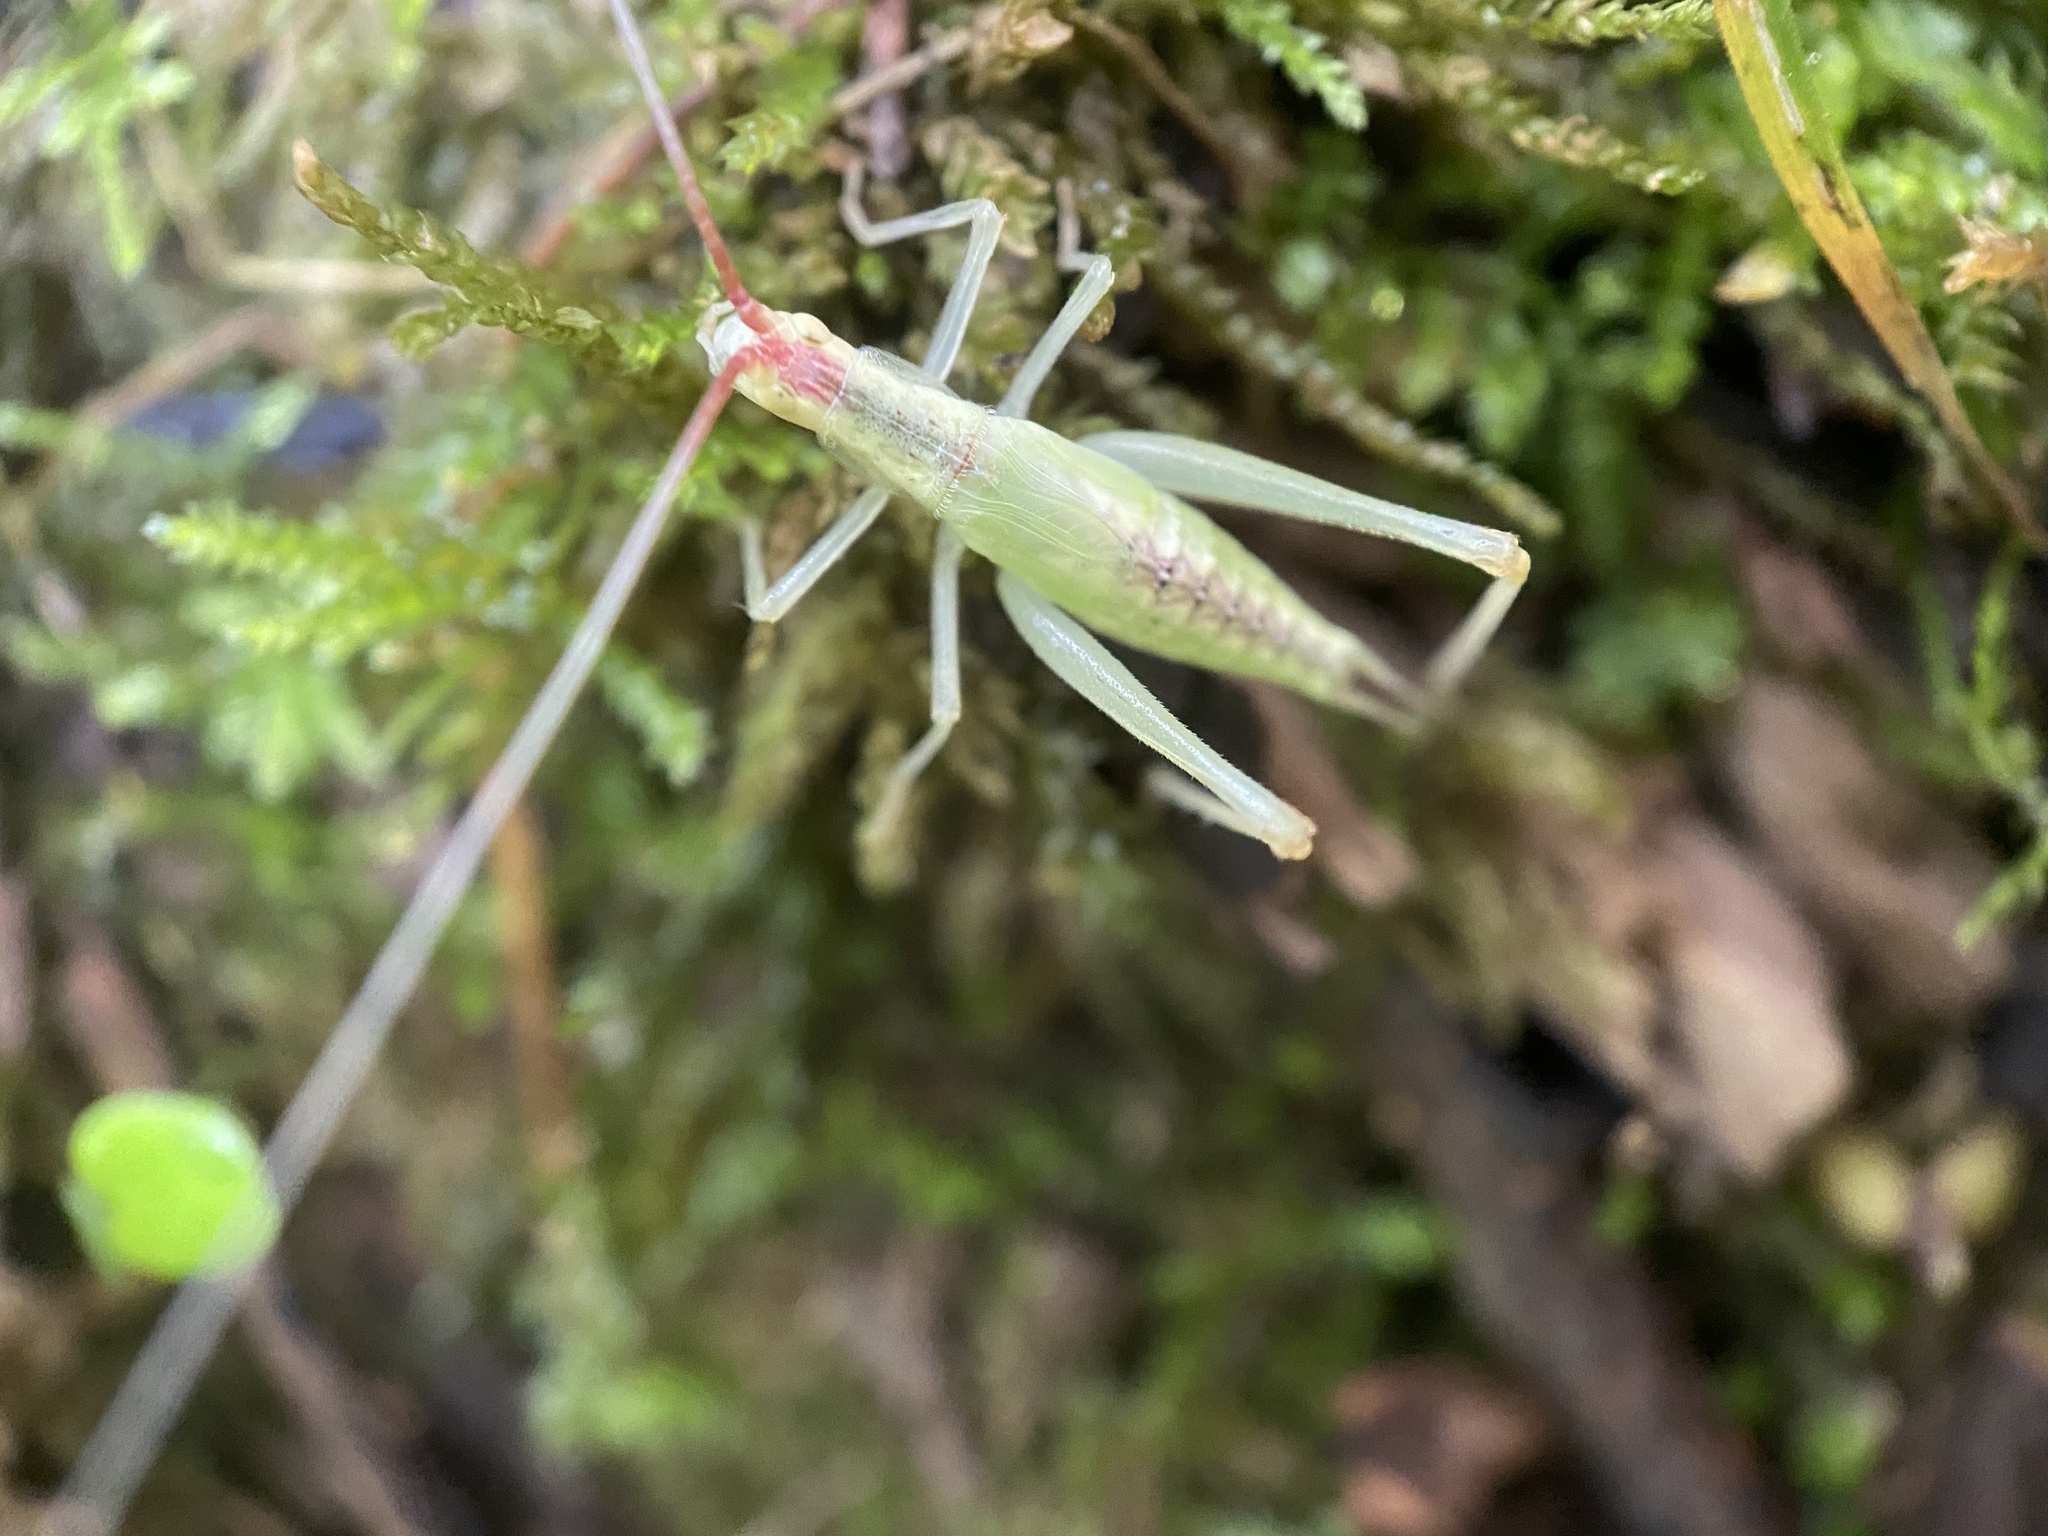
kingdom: Animalia
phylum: Arthropoda
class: Insecta
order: Orthoptera
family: Gryllidae
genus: Oecanthus
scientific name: Oecanthus latipennis
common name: Broad-winged tree cricket
